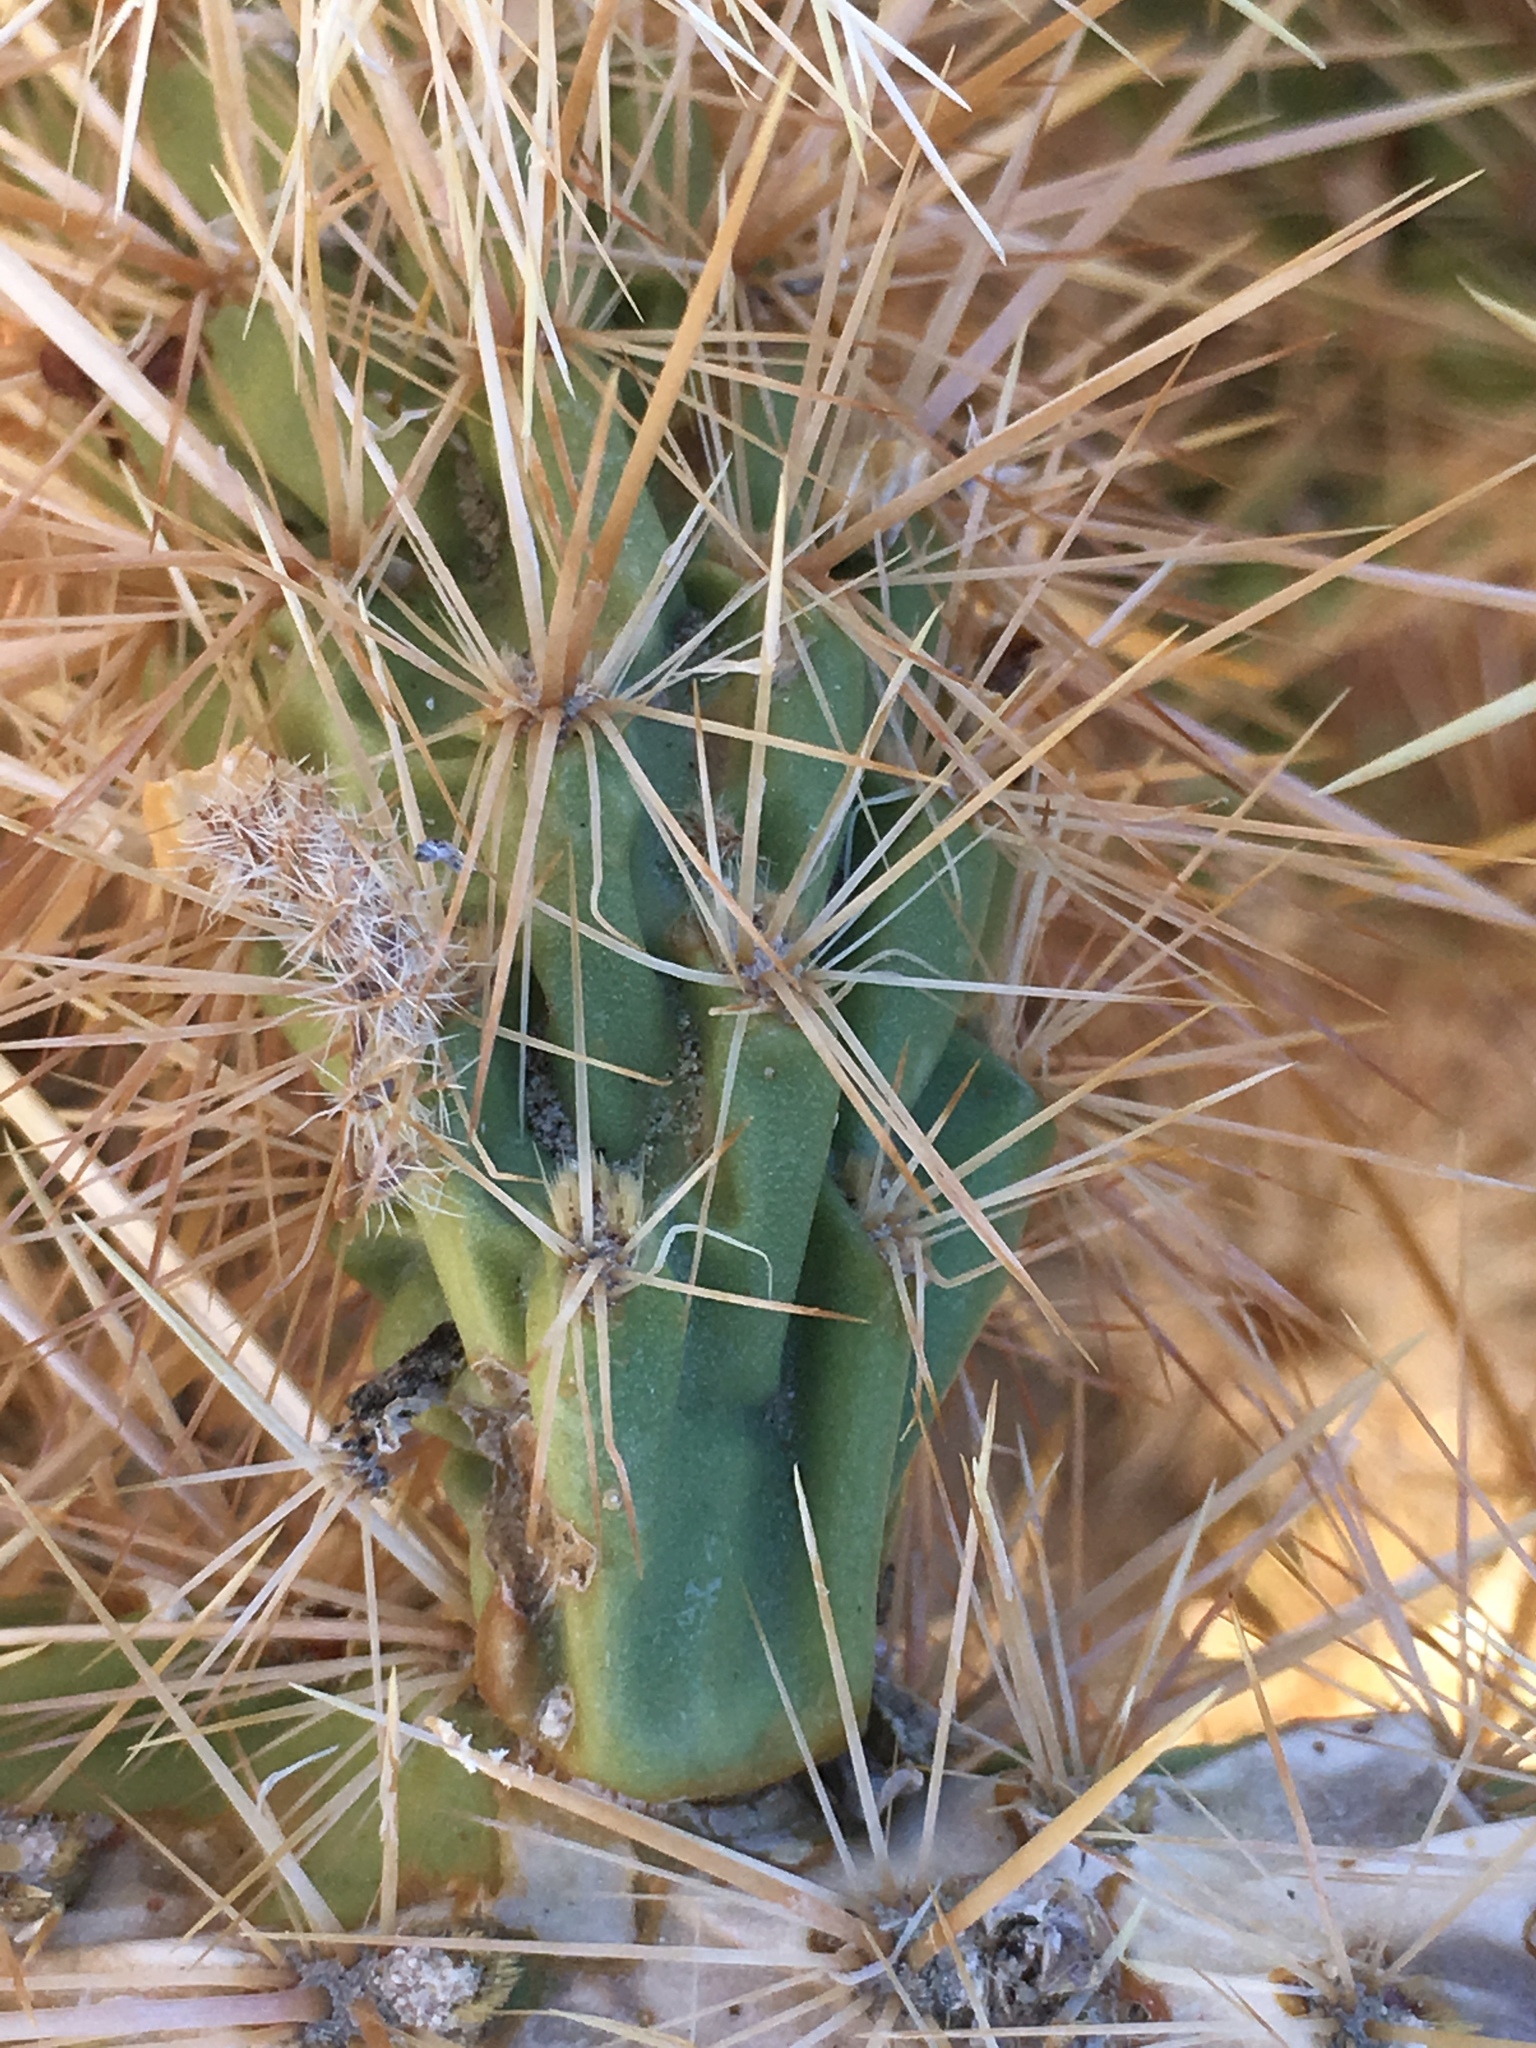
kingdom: Plantae
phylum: Tracheophyta
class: Magnoliopsida
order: Caryophyllales
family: Cactaceae
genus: Cylindropuntia
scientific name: Cylindropuntia echinocarpa
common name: Ground cholla
